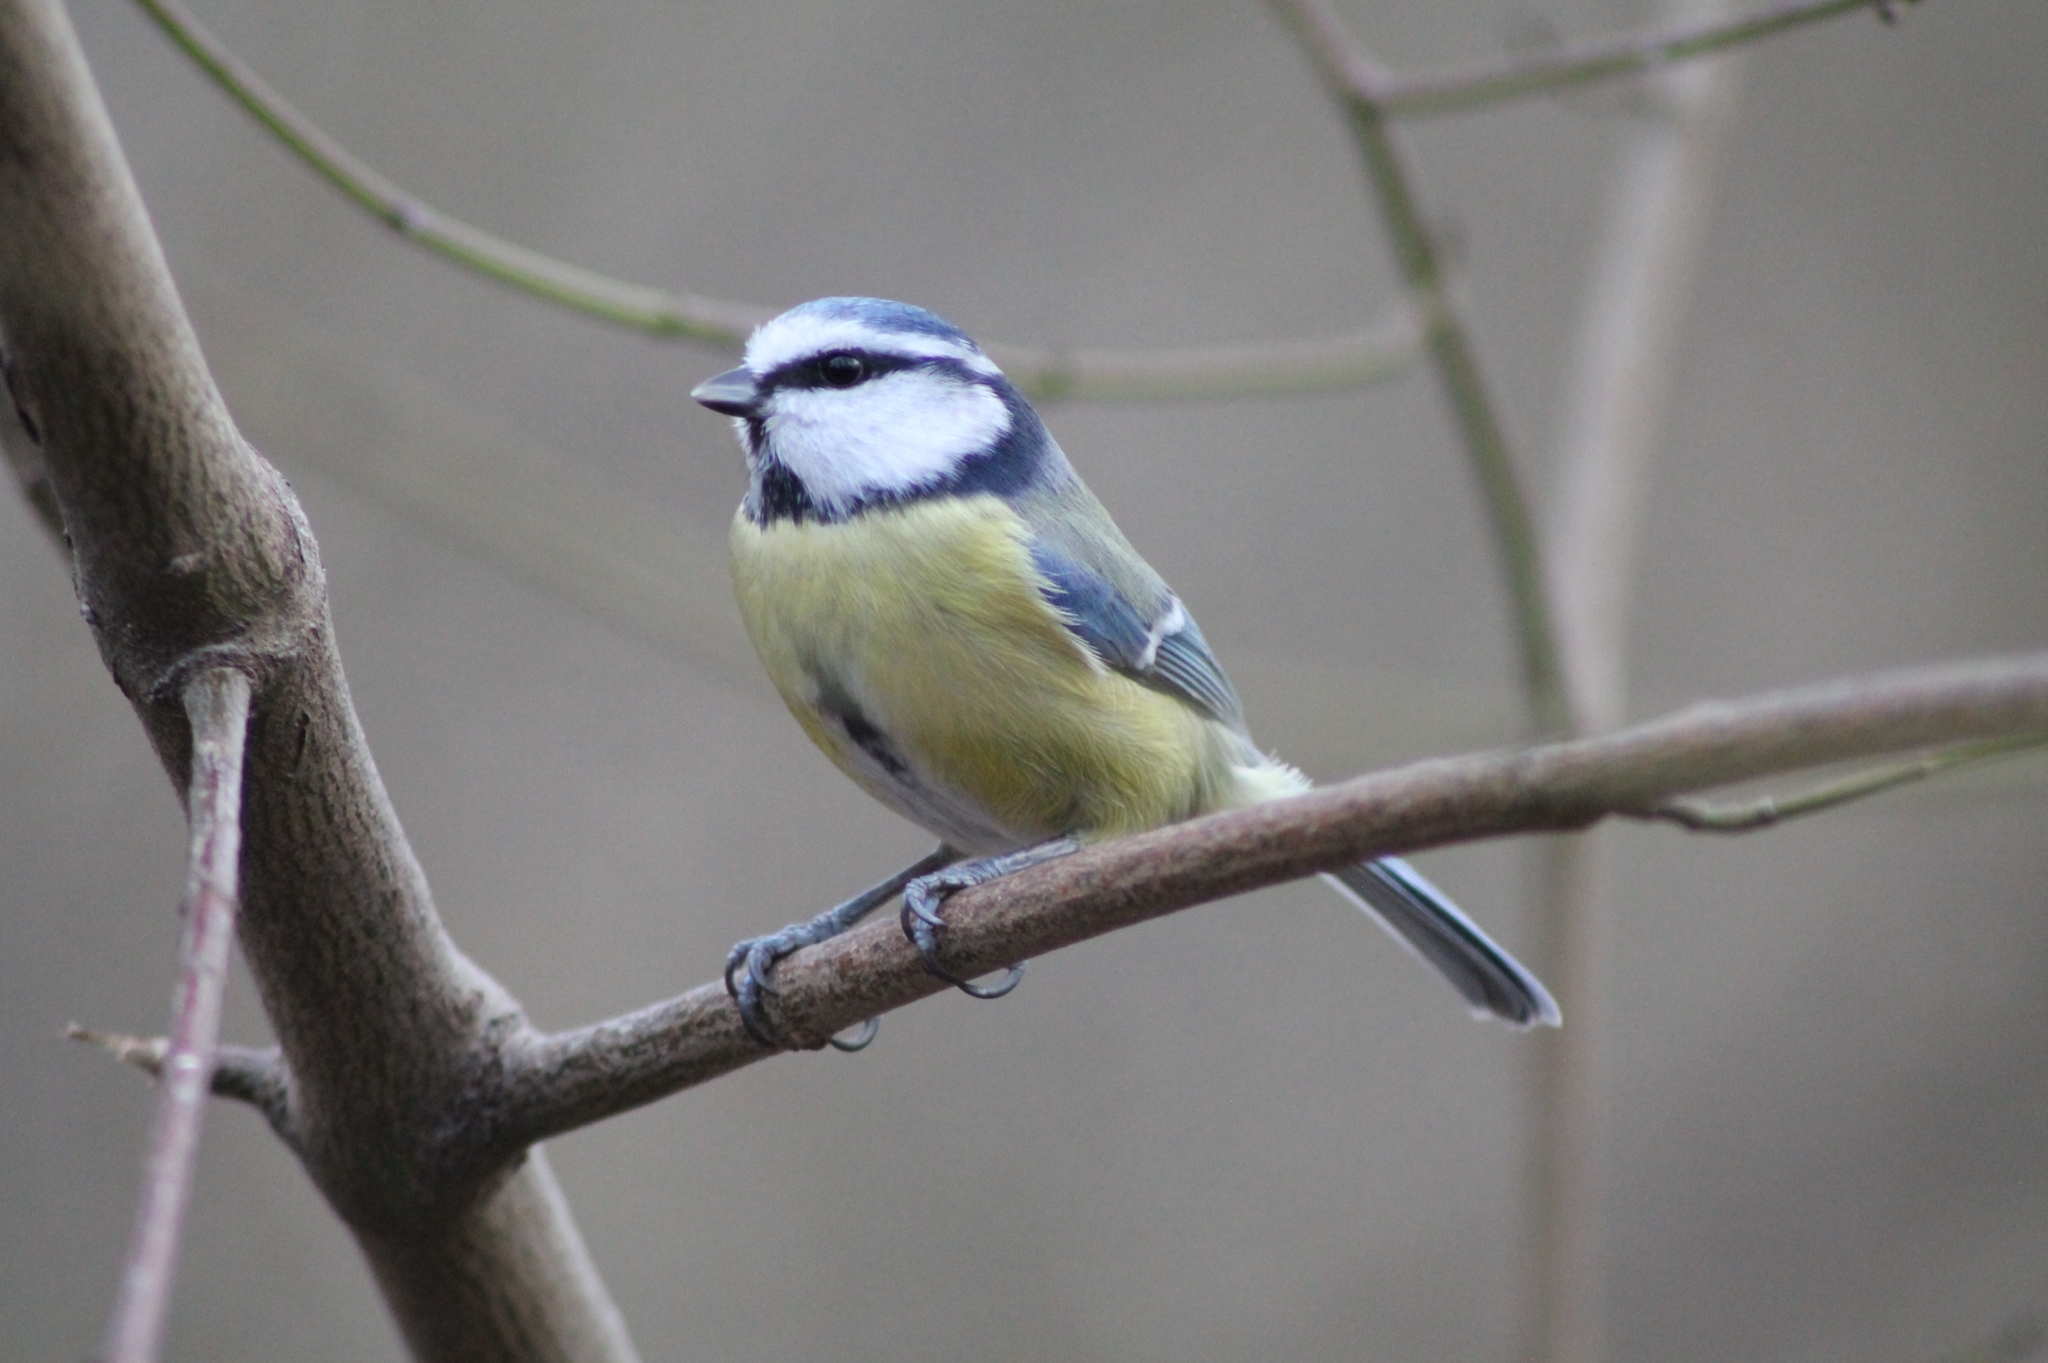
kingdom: Animalia
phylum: Chordata
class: Aves
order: Passeriformes
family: Paridae
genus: Cyanistes
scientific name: Cyanistes caeruleus
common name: Eurasian blue tit
